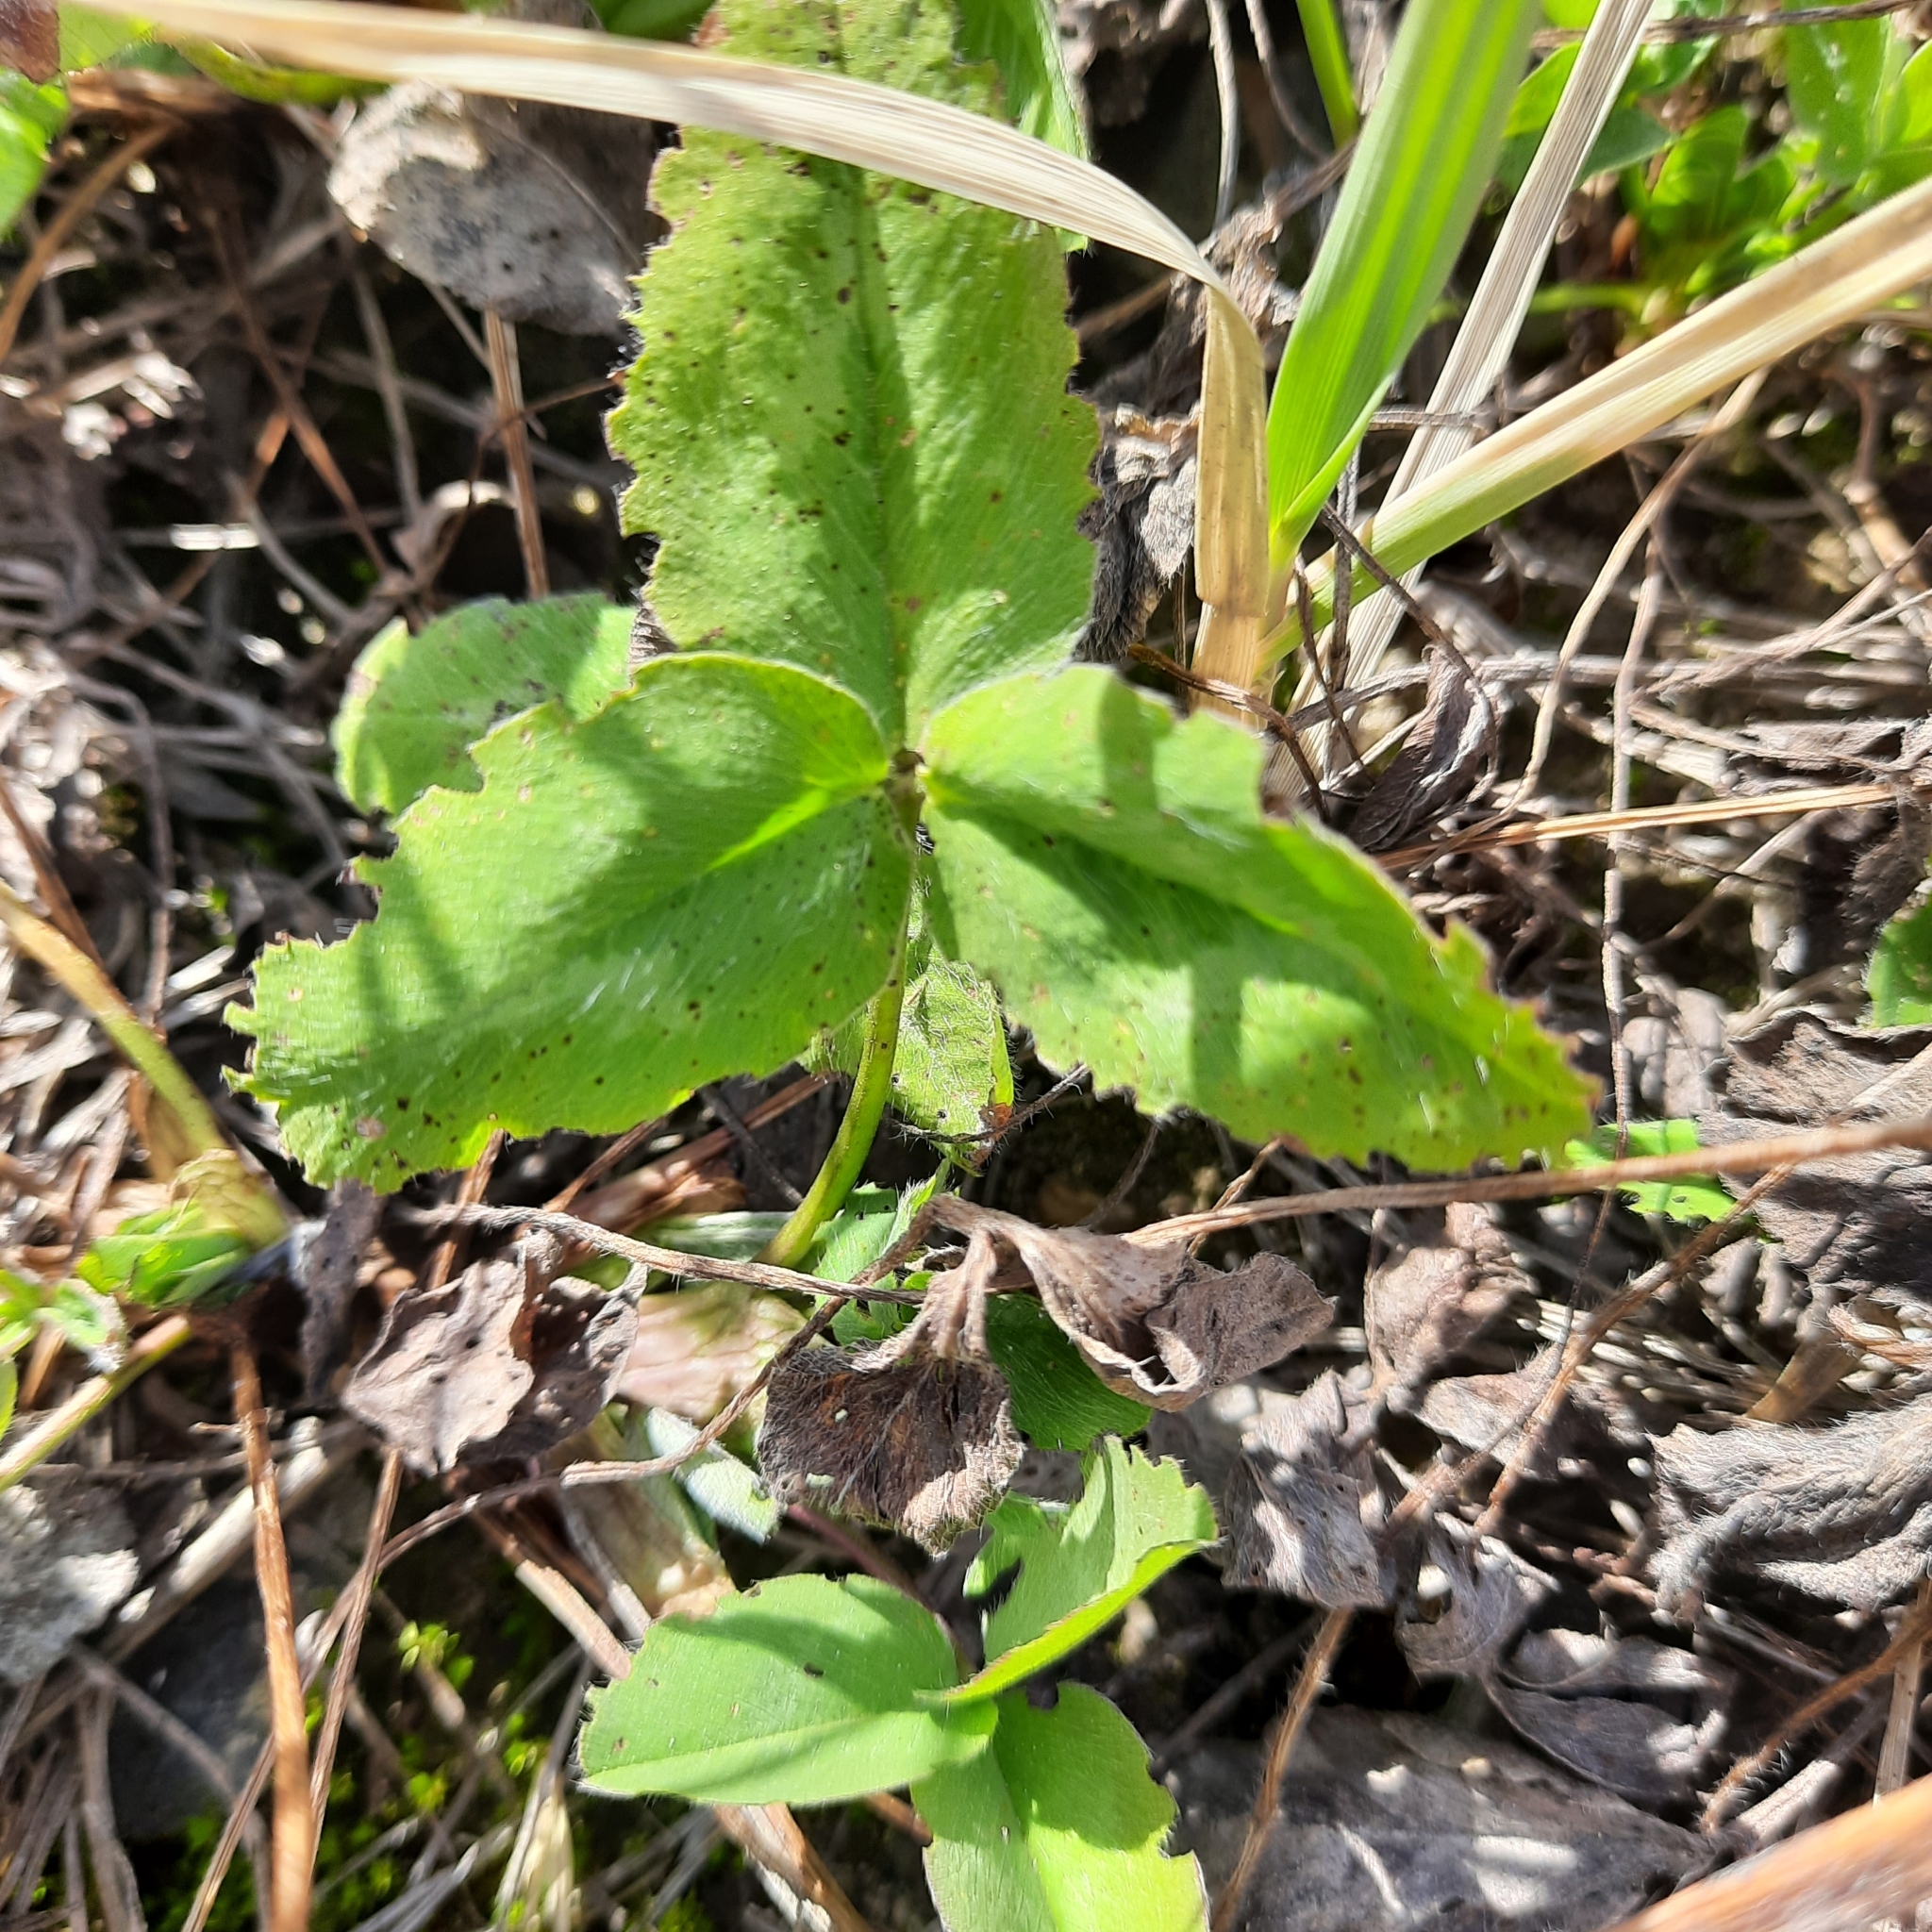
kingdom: Plantae
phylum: Tracheophyta
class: Magnoliopsida
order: Fabales
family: Fabaceae
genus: Trifolium
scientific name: Trifolium pratense
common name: Red clover
